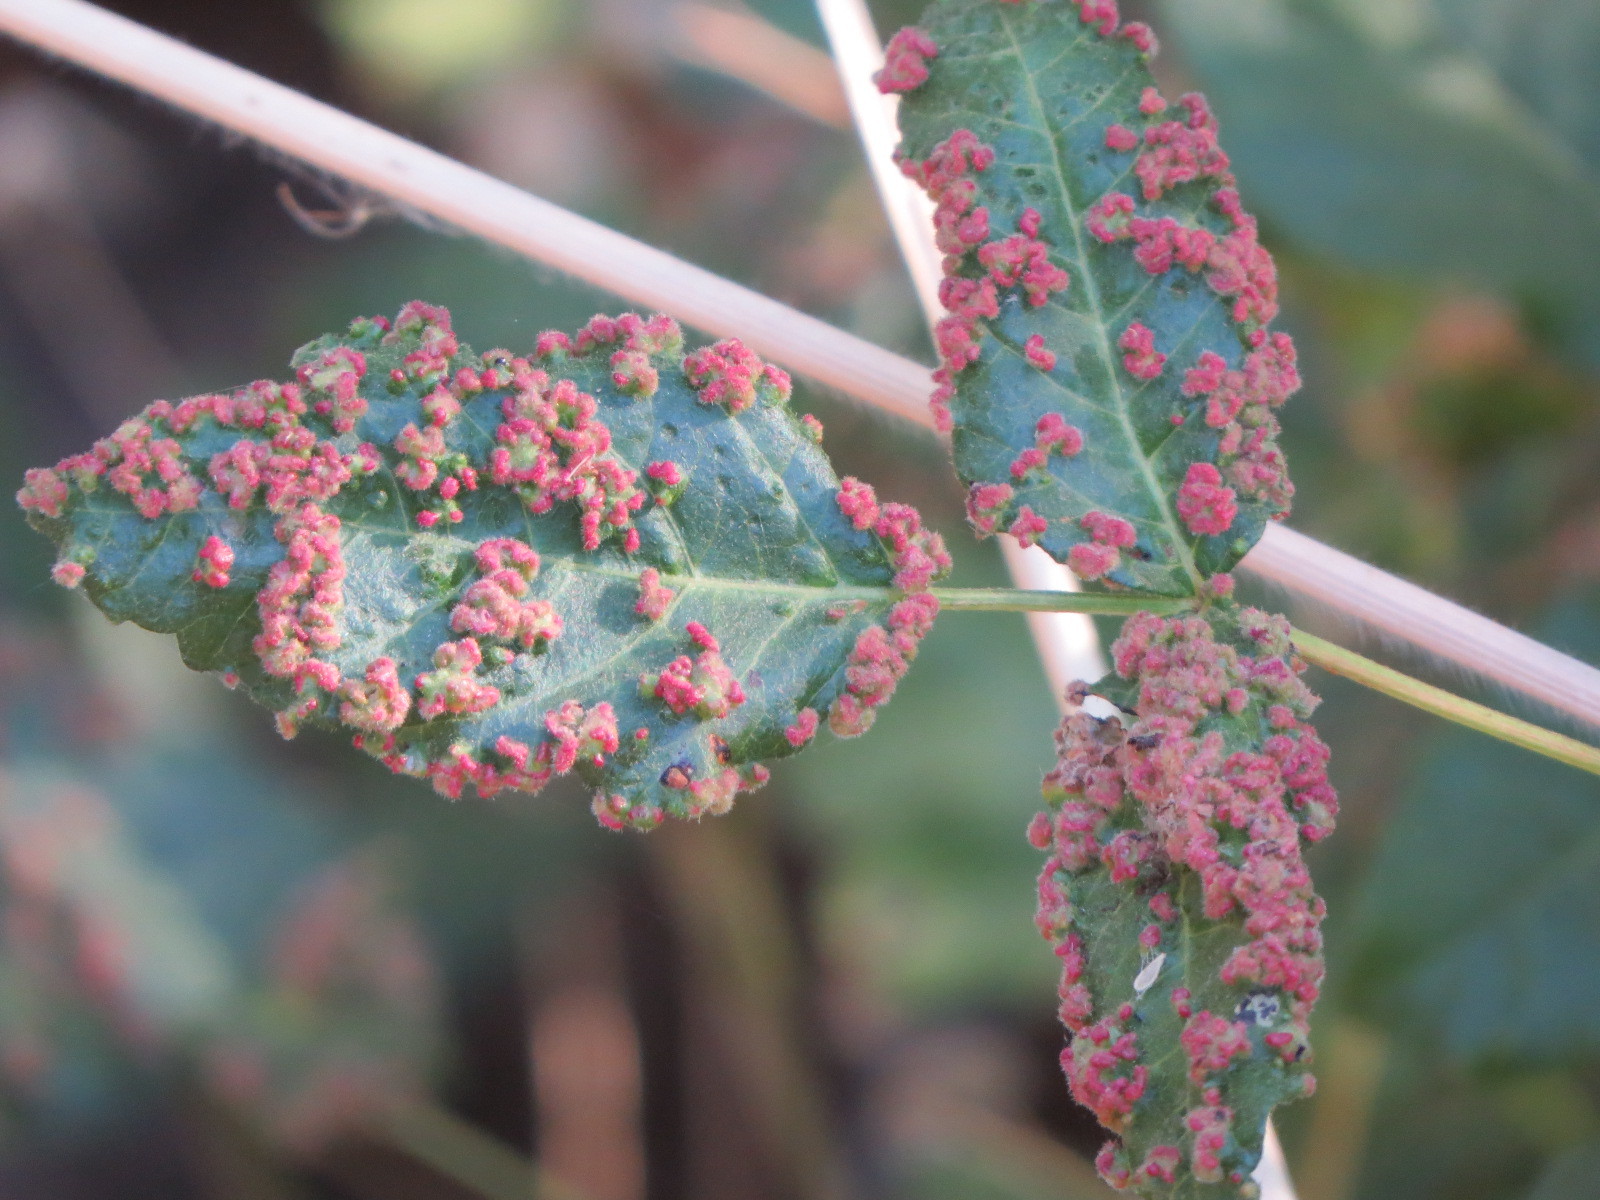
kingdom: Animalia
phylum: Arthropoda
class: Arachnida
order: Trombidiformes
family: Eriophyidae
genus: Aculops
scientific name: Aculops
